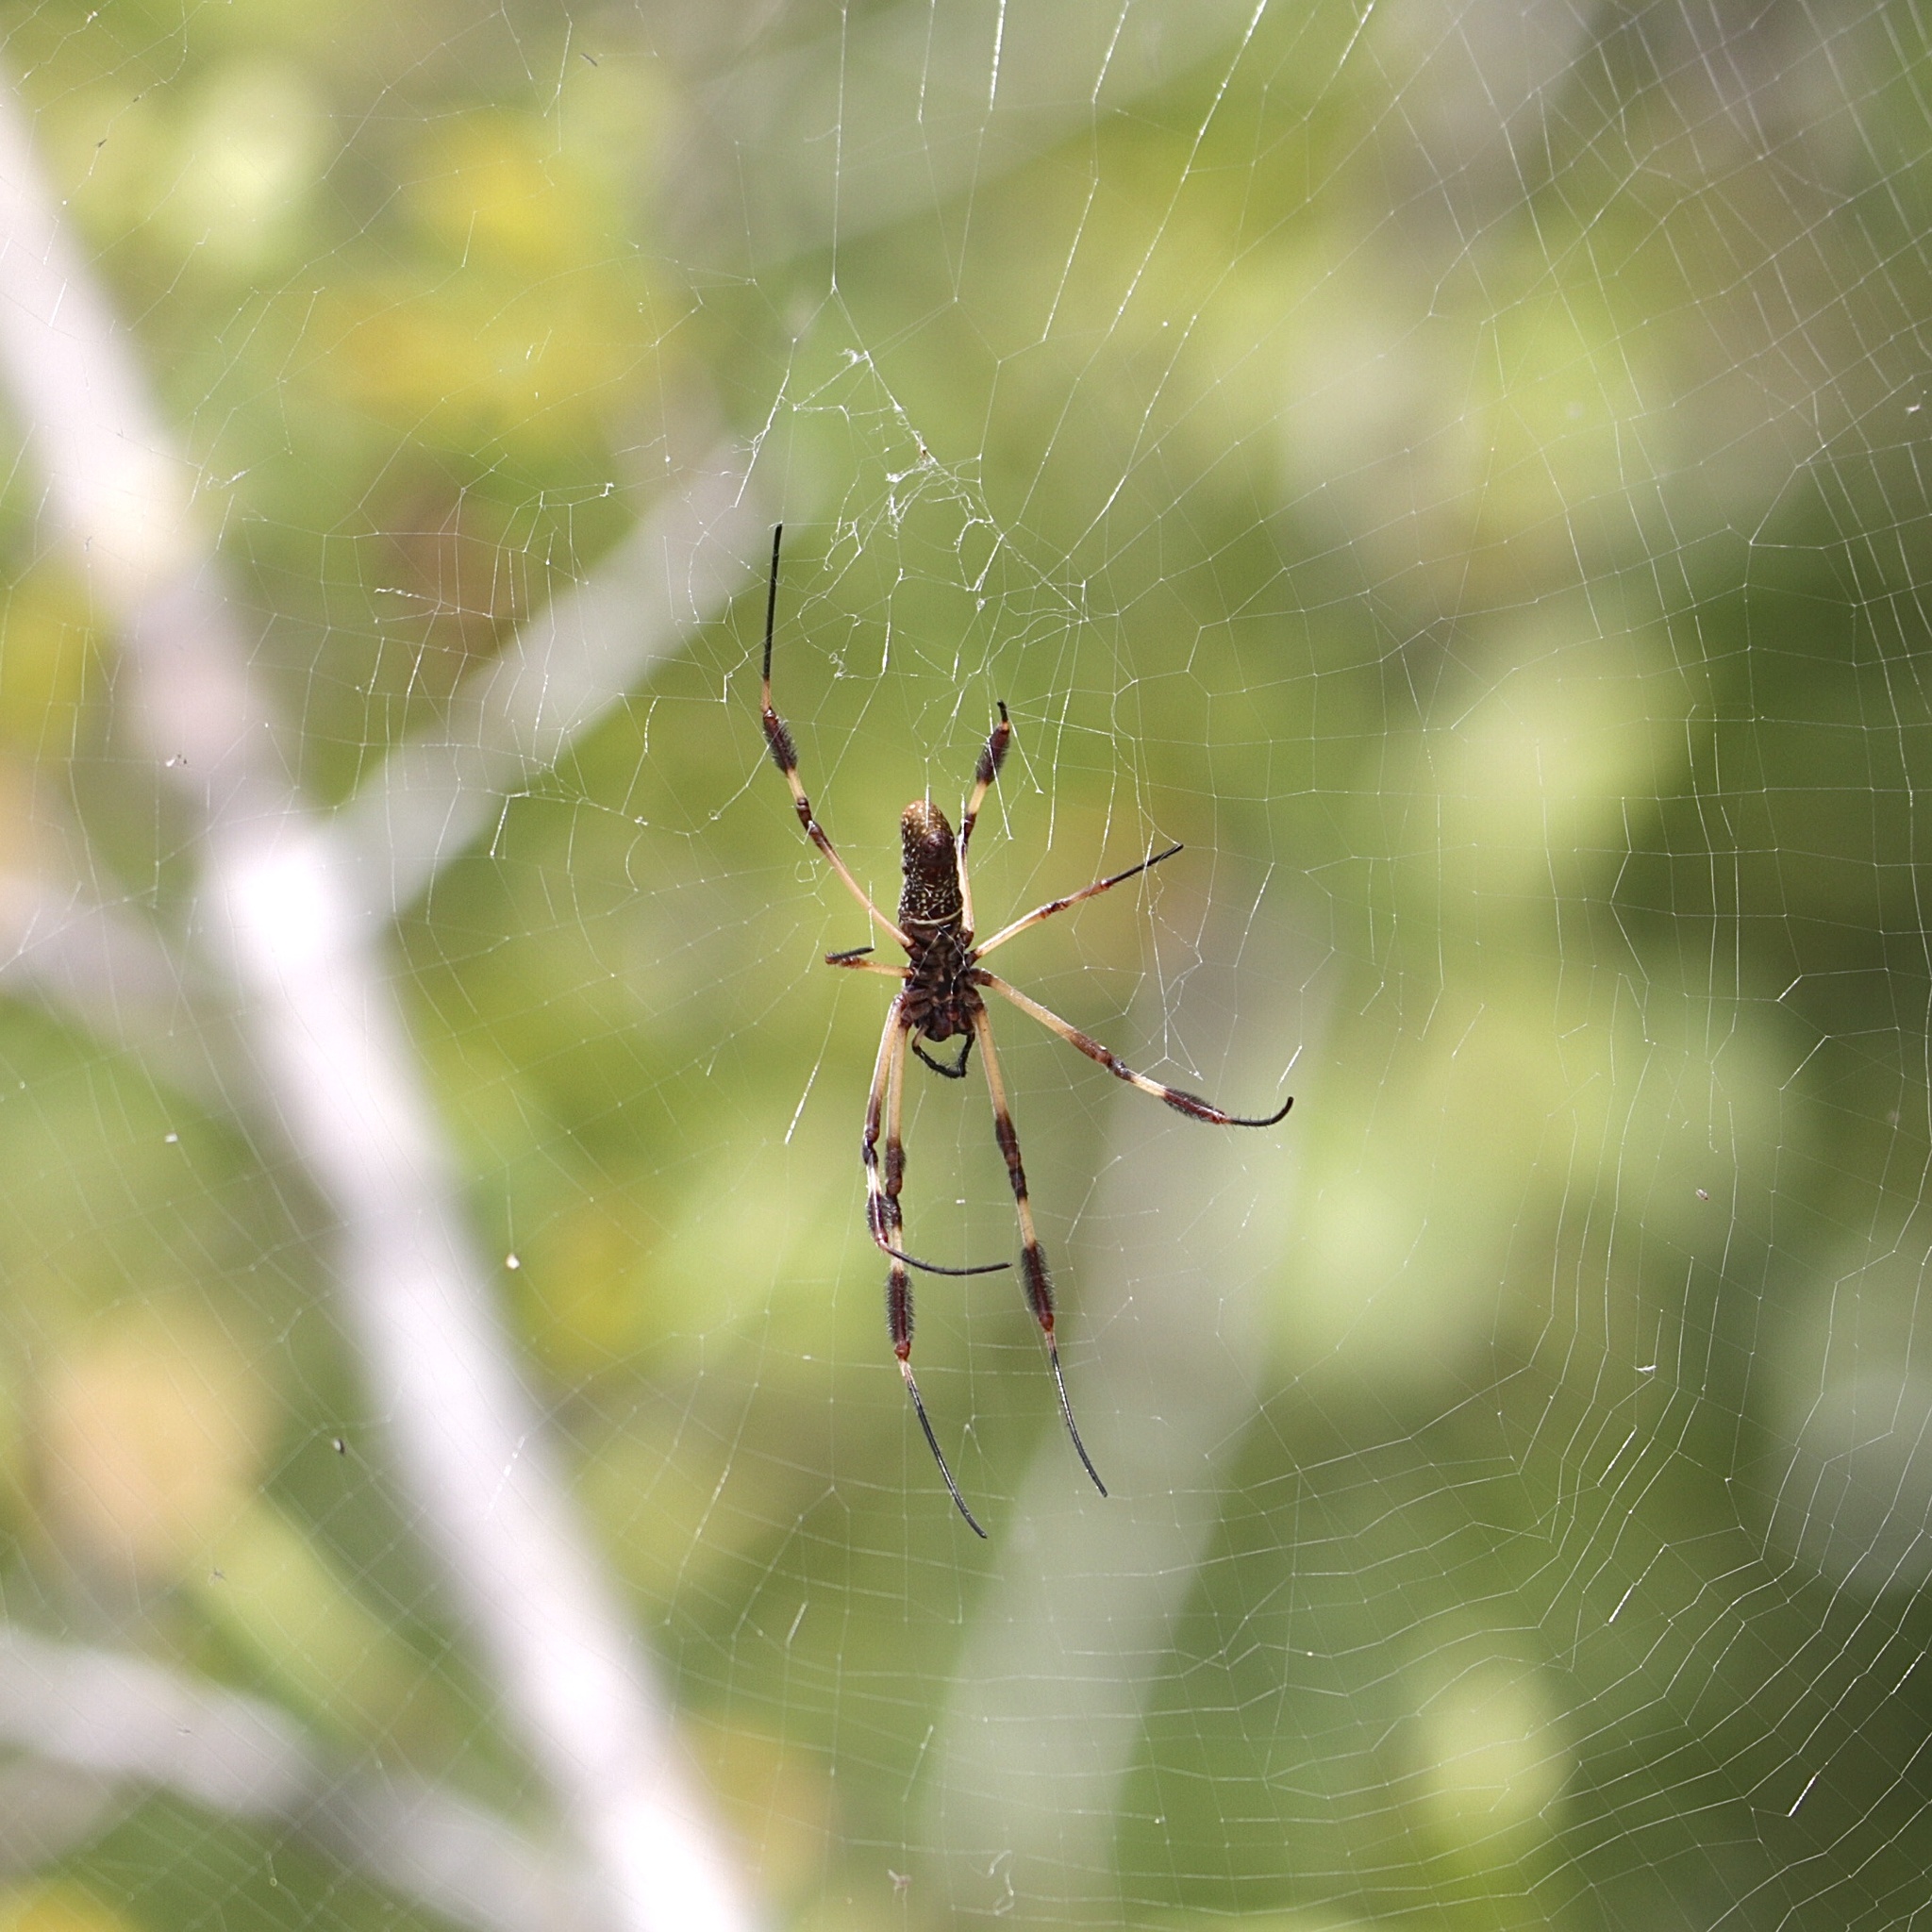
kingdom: Animalia
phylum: Arthropoda
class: Arachnida
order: Araneae
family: Araneidae
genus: Trichonephila
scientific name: Trichonephila clavipes
